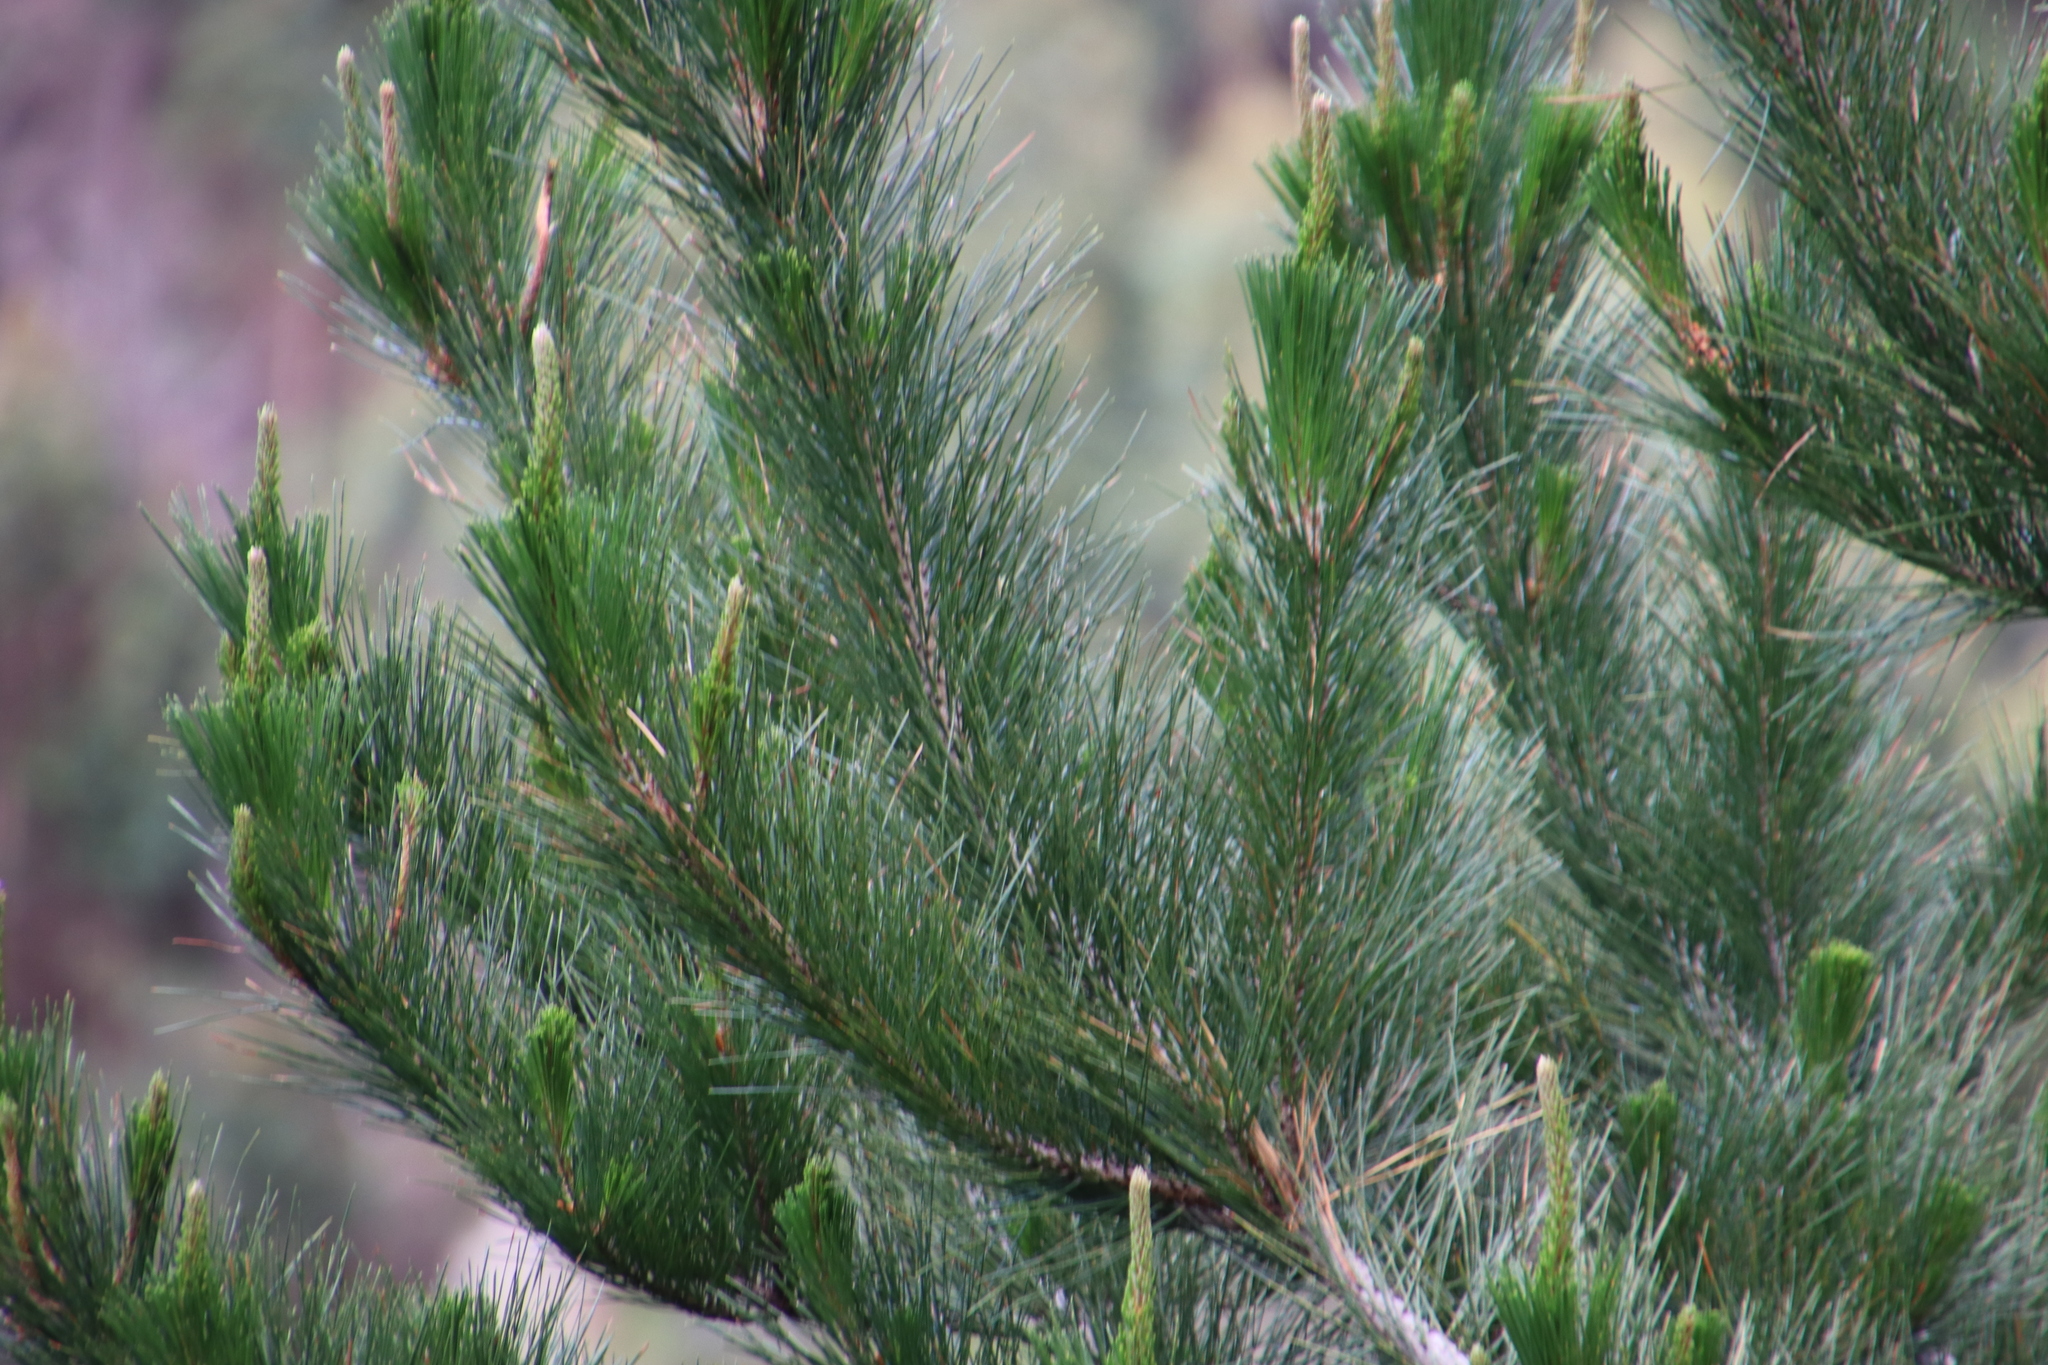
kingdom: Plantae
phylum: Tracheophyta
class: Pinopsida
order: Pinales
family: Pinaceae
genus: Pinus
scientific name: Pinus radiata
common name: Monterey pine
